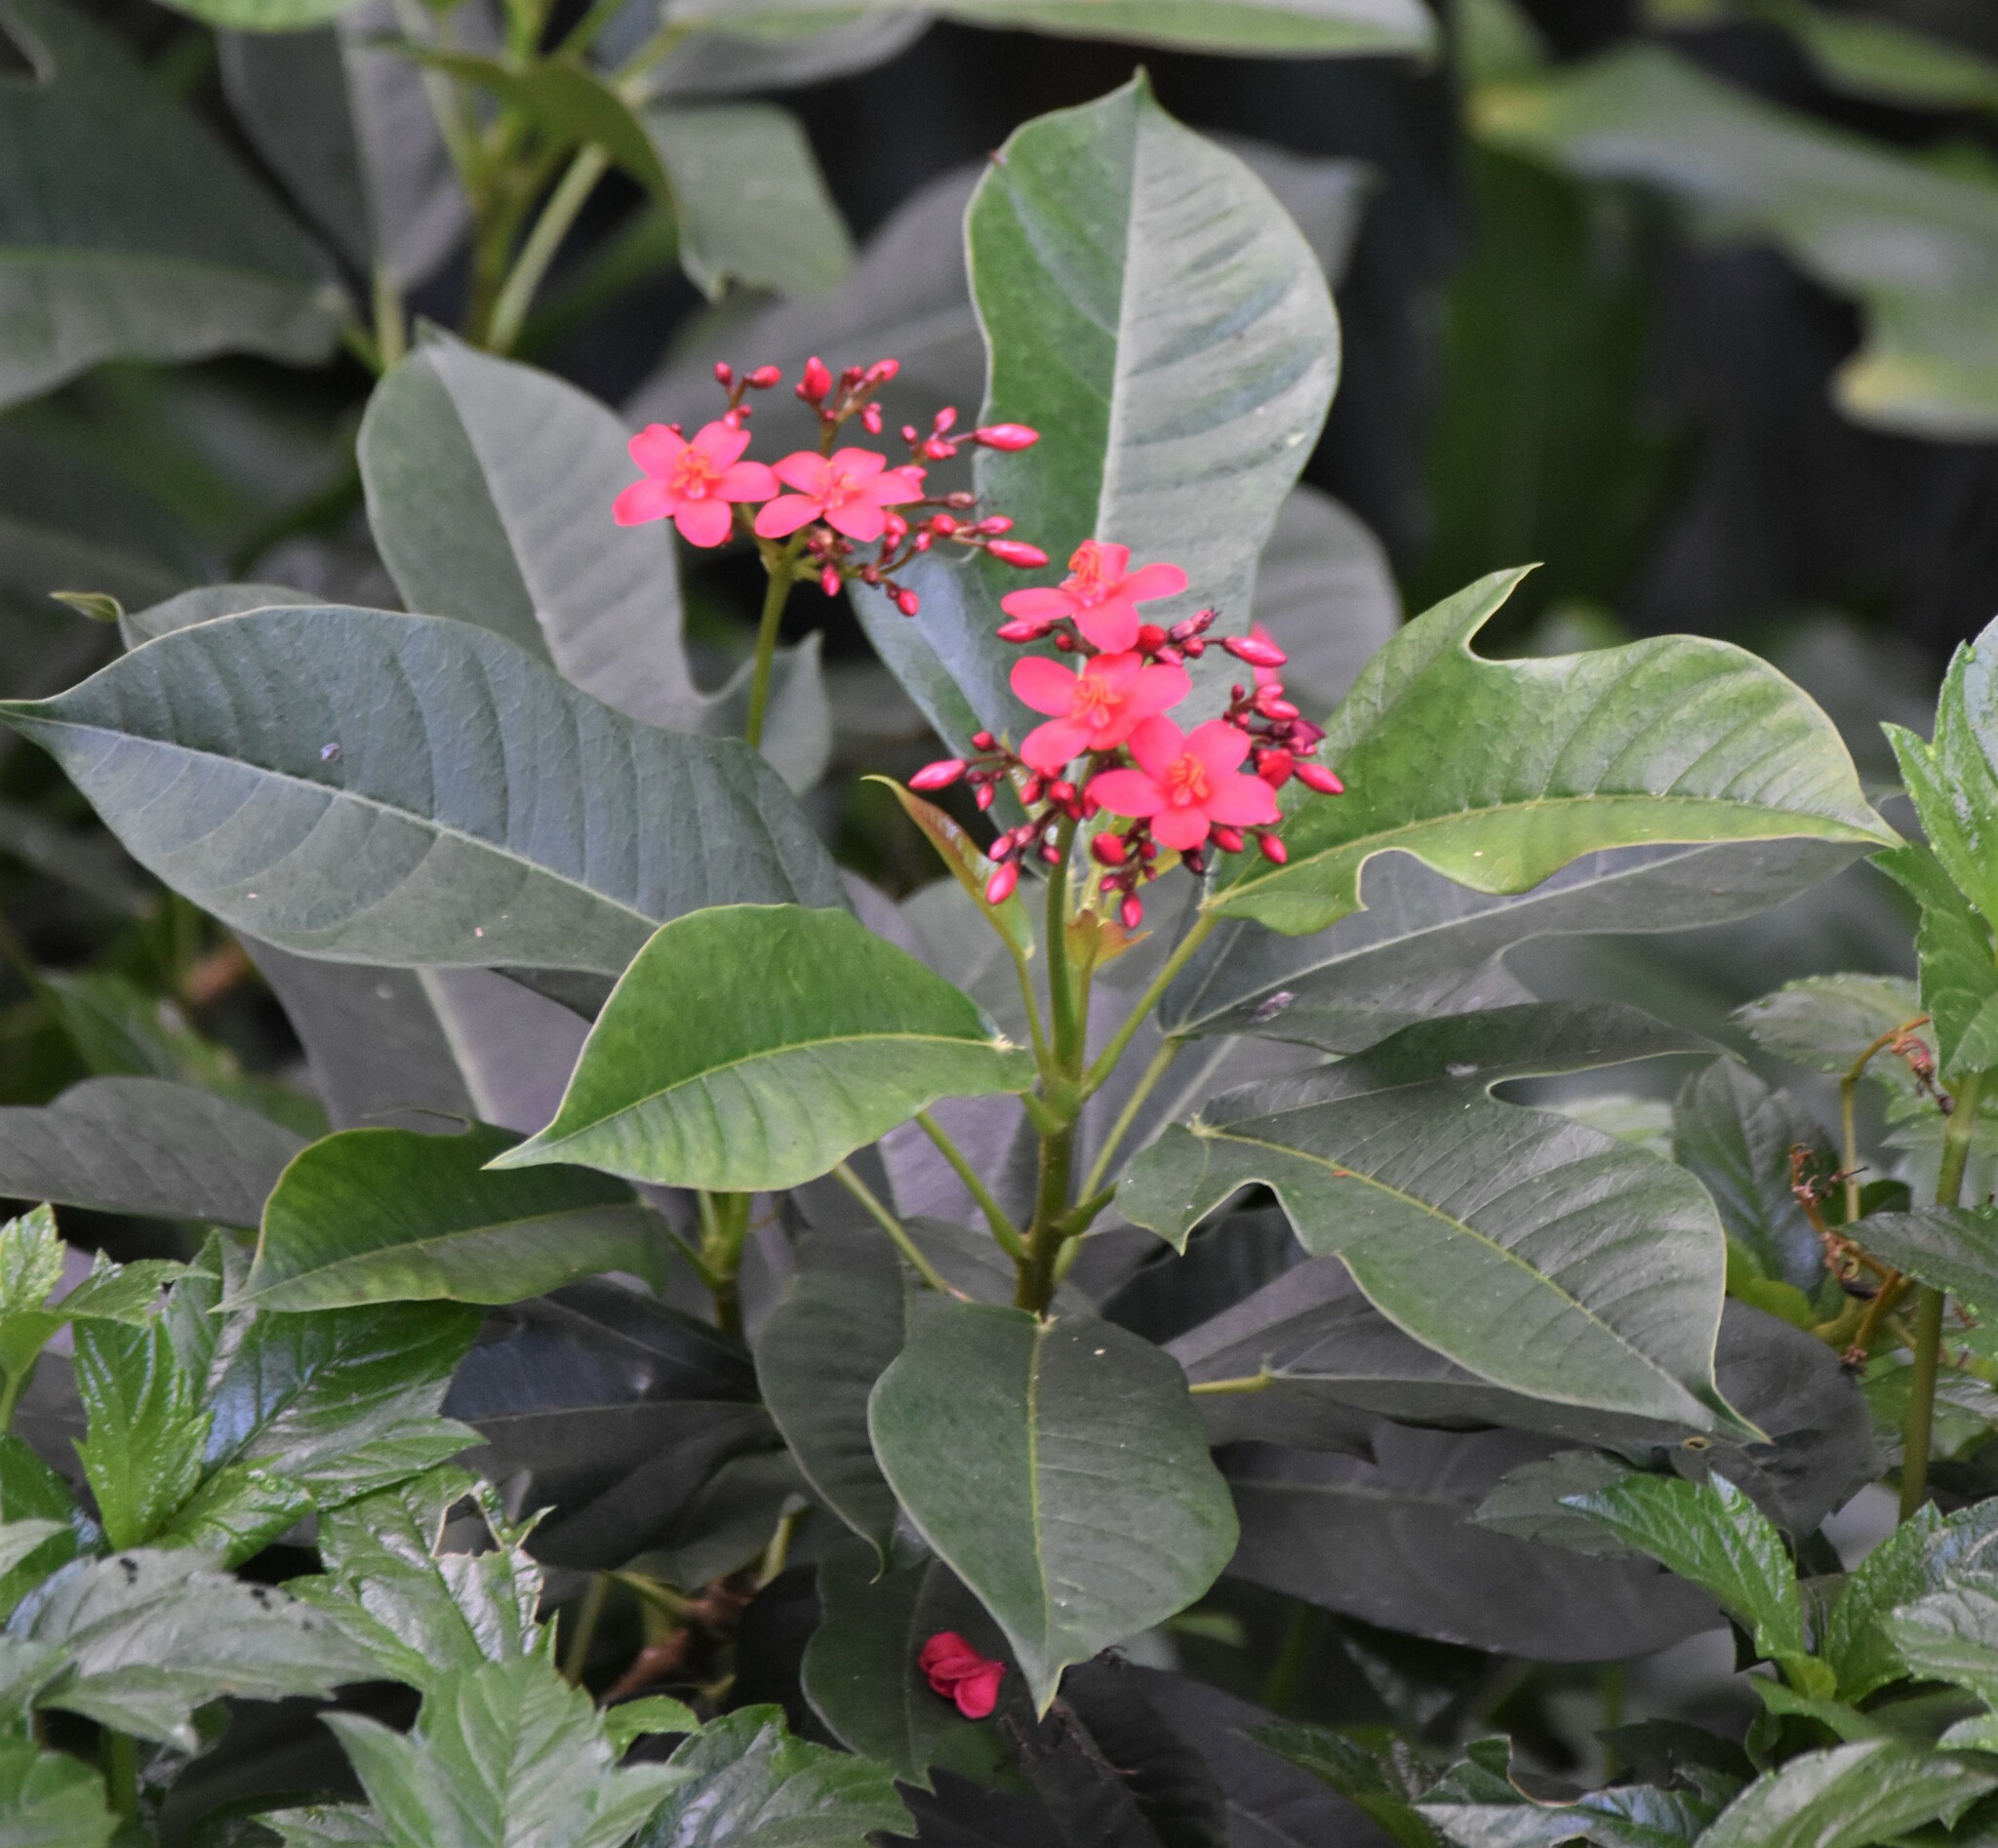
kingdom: Plantae
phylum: Tracheophyta
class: Magnoliopsida
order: Malpighiales
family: Euphorbiaceae
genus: Jatropha
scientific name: Jatropha integerrima
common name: Peregrina
